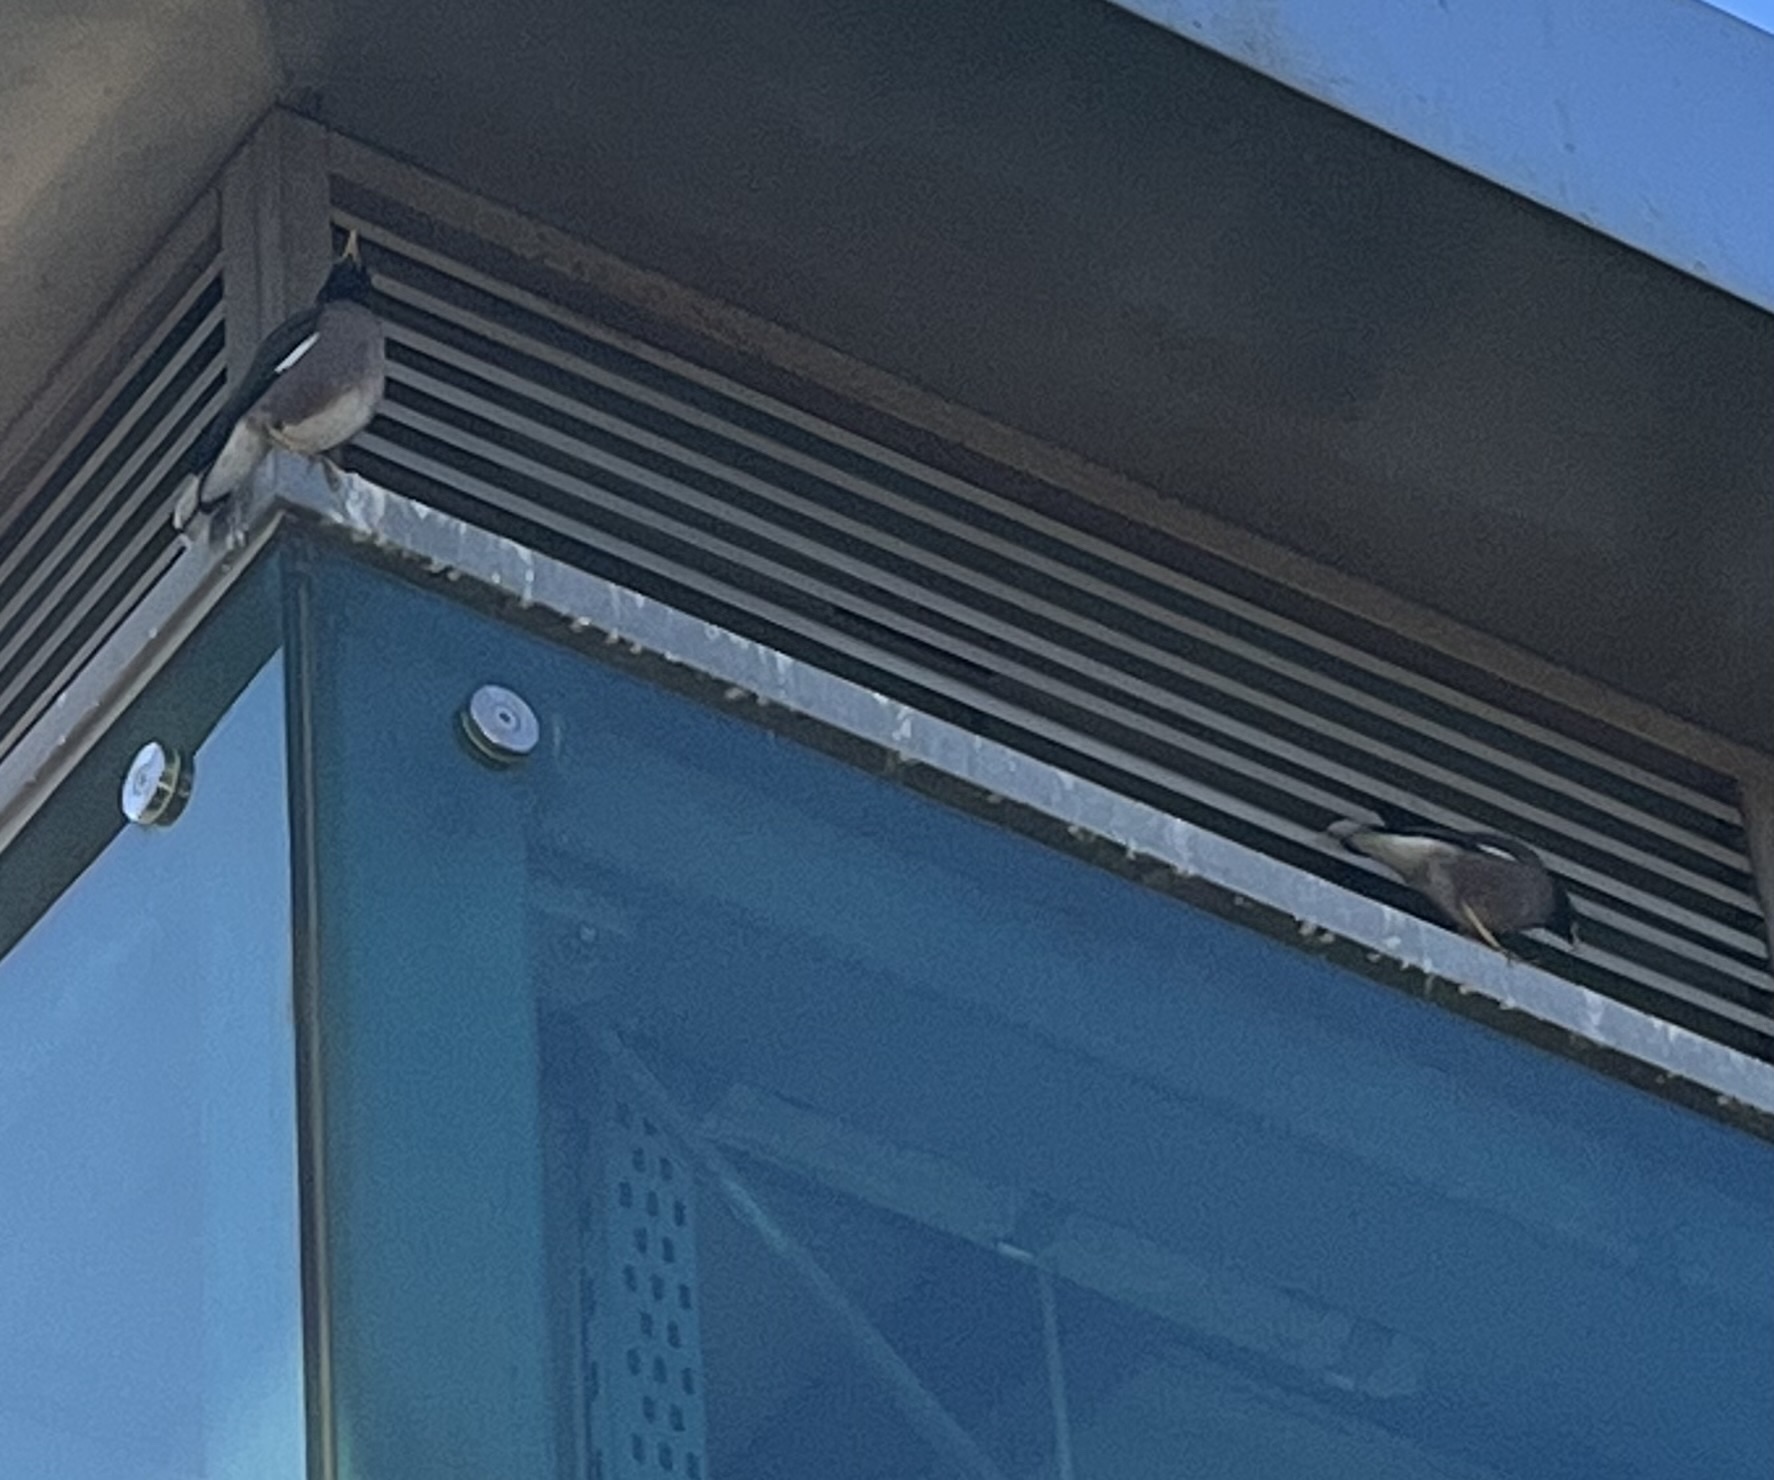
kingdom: Animalia
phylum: Chordata
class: Aves
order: Passeriformes
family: Sturnidae
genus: Acridotheres
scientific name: Acridotheres tristis
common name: Common myna
